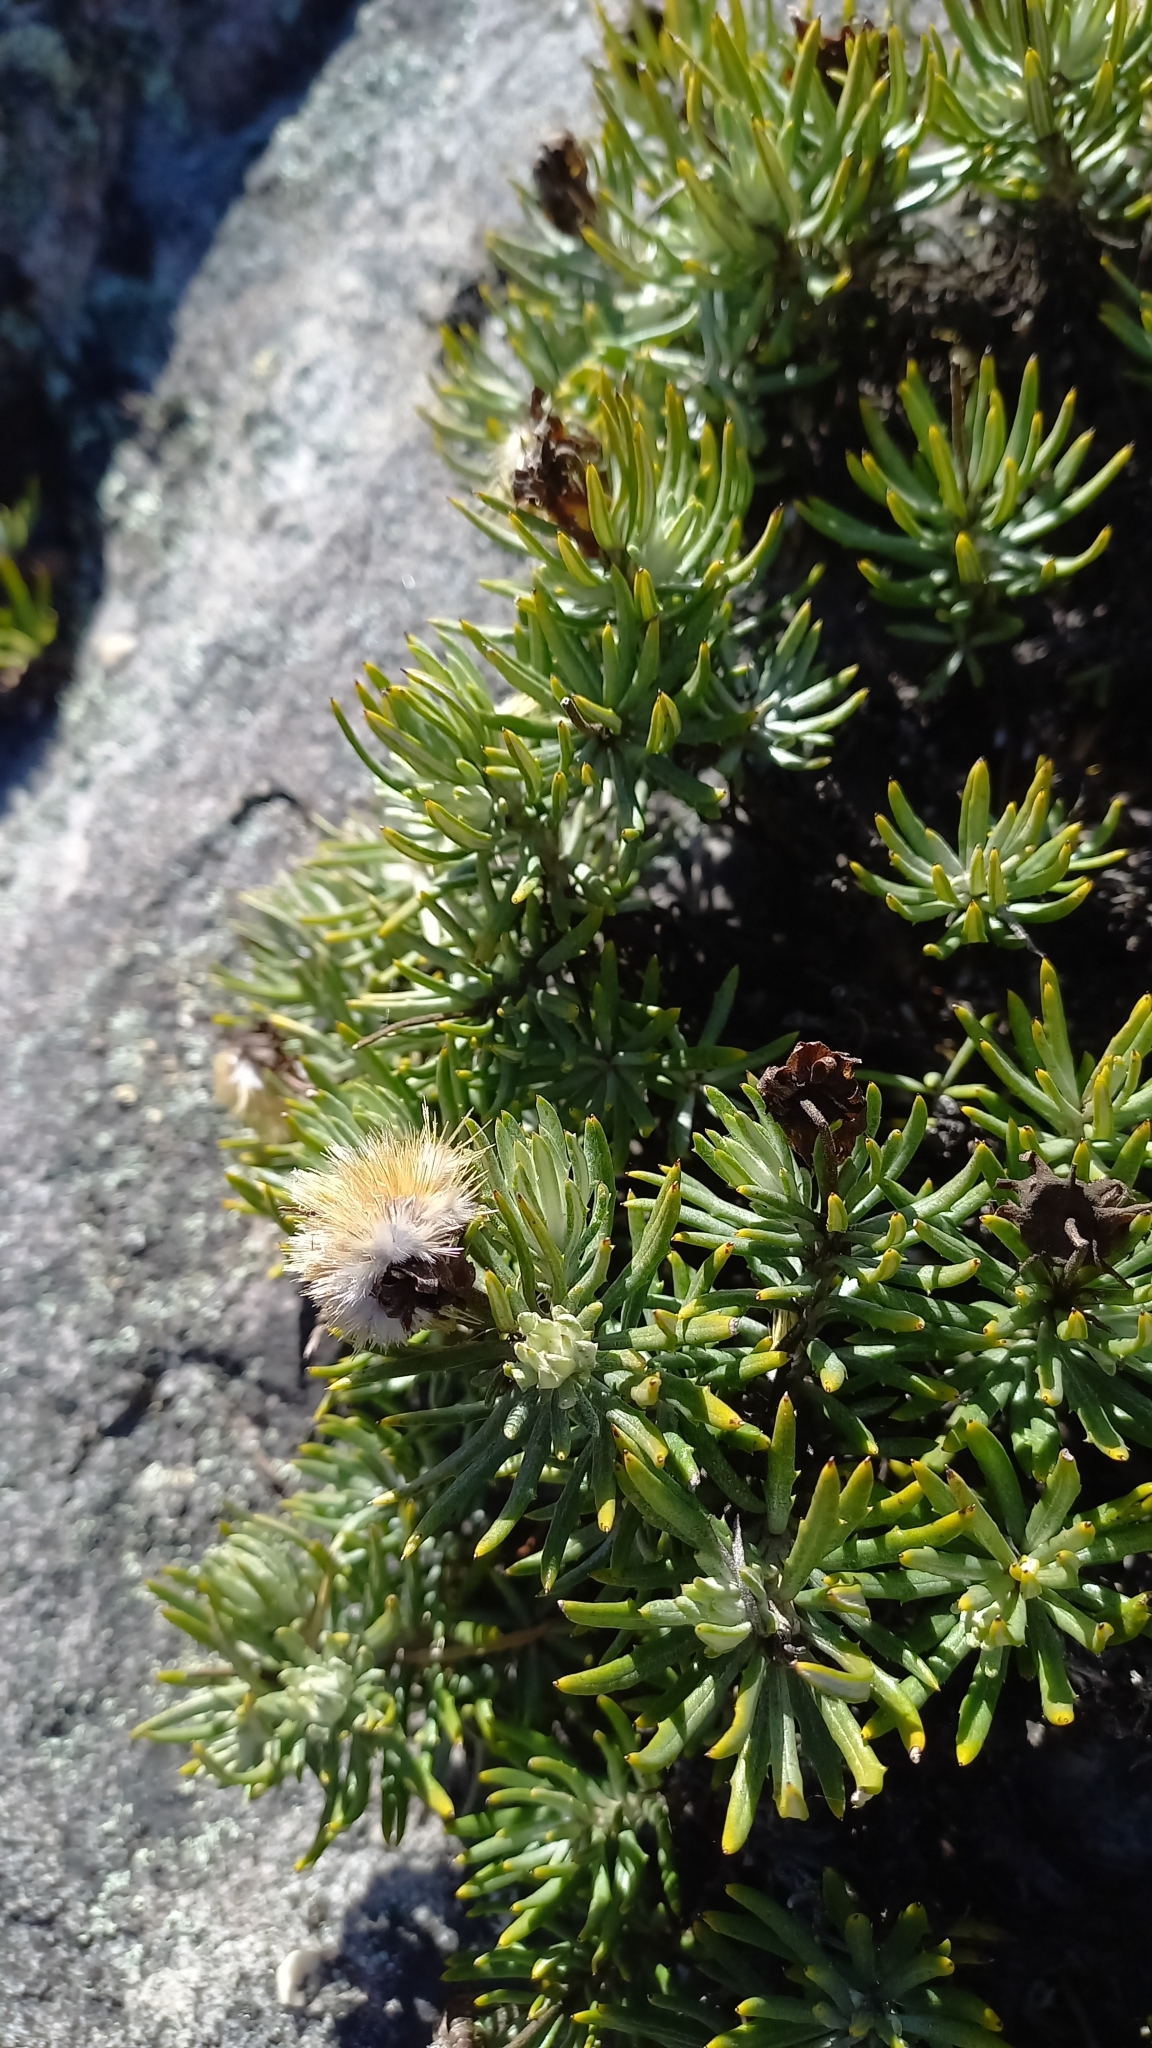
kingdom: Plantae
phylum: Tracheophyta
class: Magnoliopsida
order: Asterales
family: Asteraceae
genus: Heterolepis
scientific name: Heterolepis aliena
